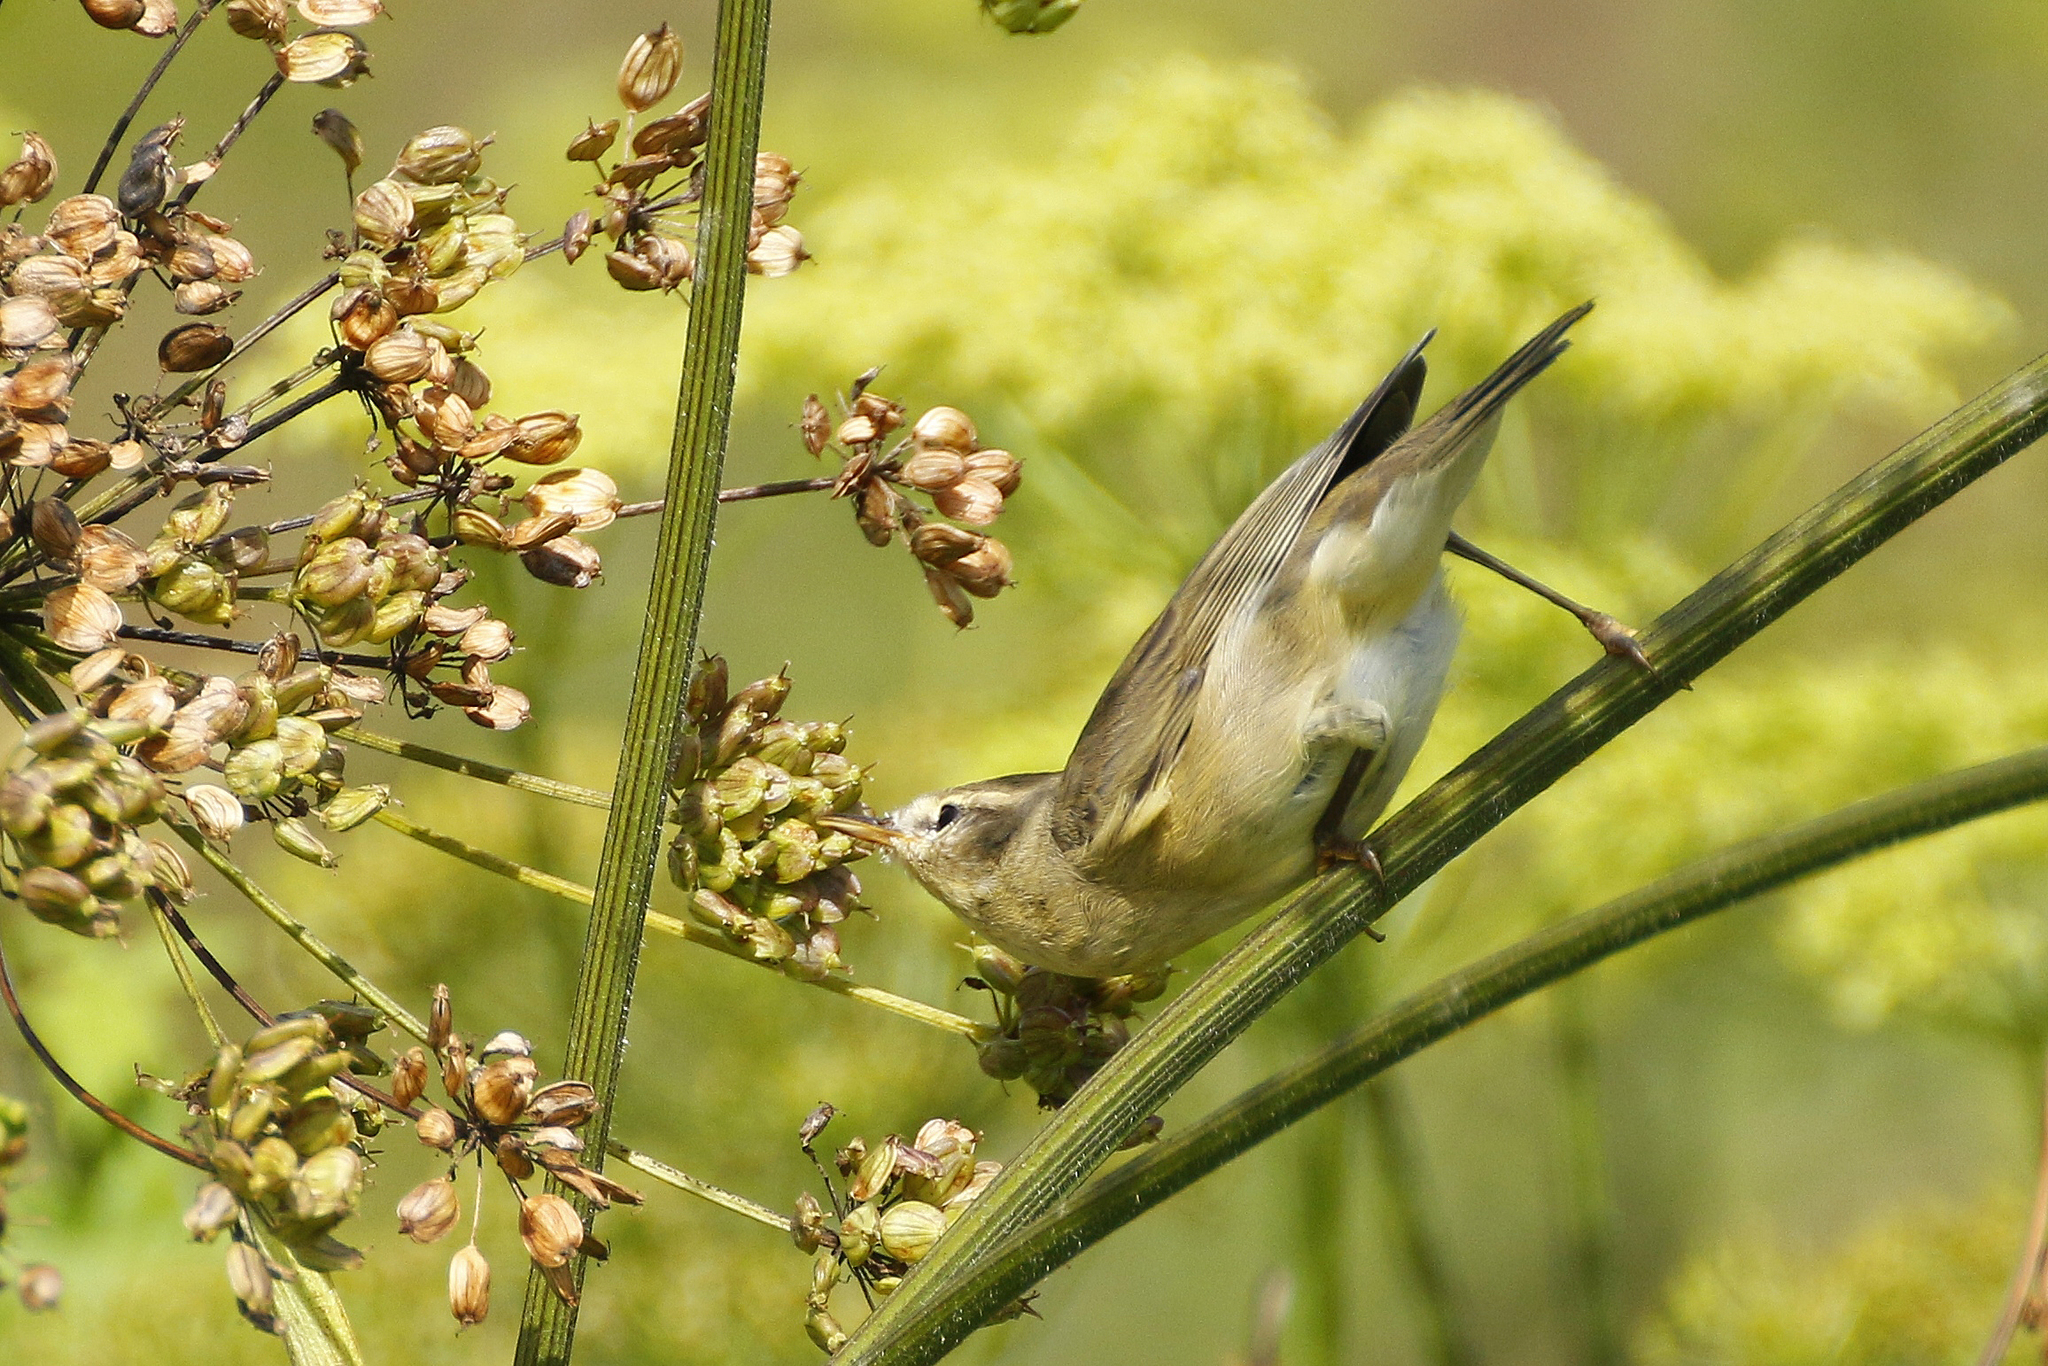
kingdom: Animalia
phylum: Chordata
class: Aves
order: Passeriformes
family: Phylloscopidae
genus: Phylloscopus
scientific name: Phylloscopus trochilus
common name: Willow warbler
